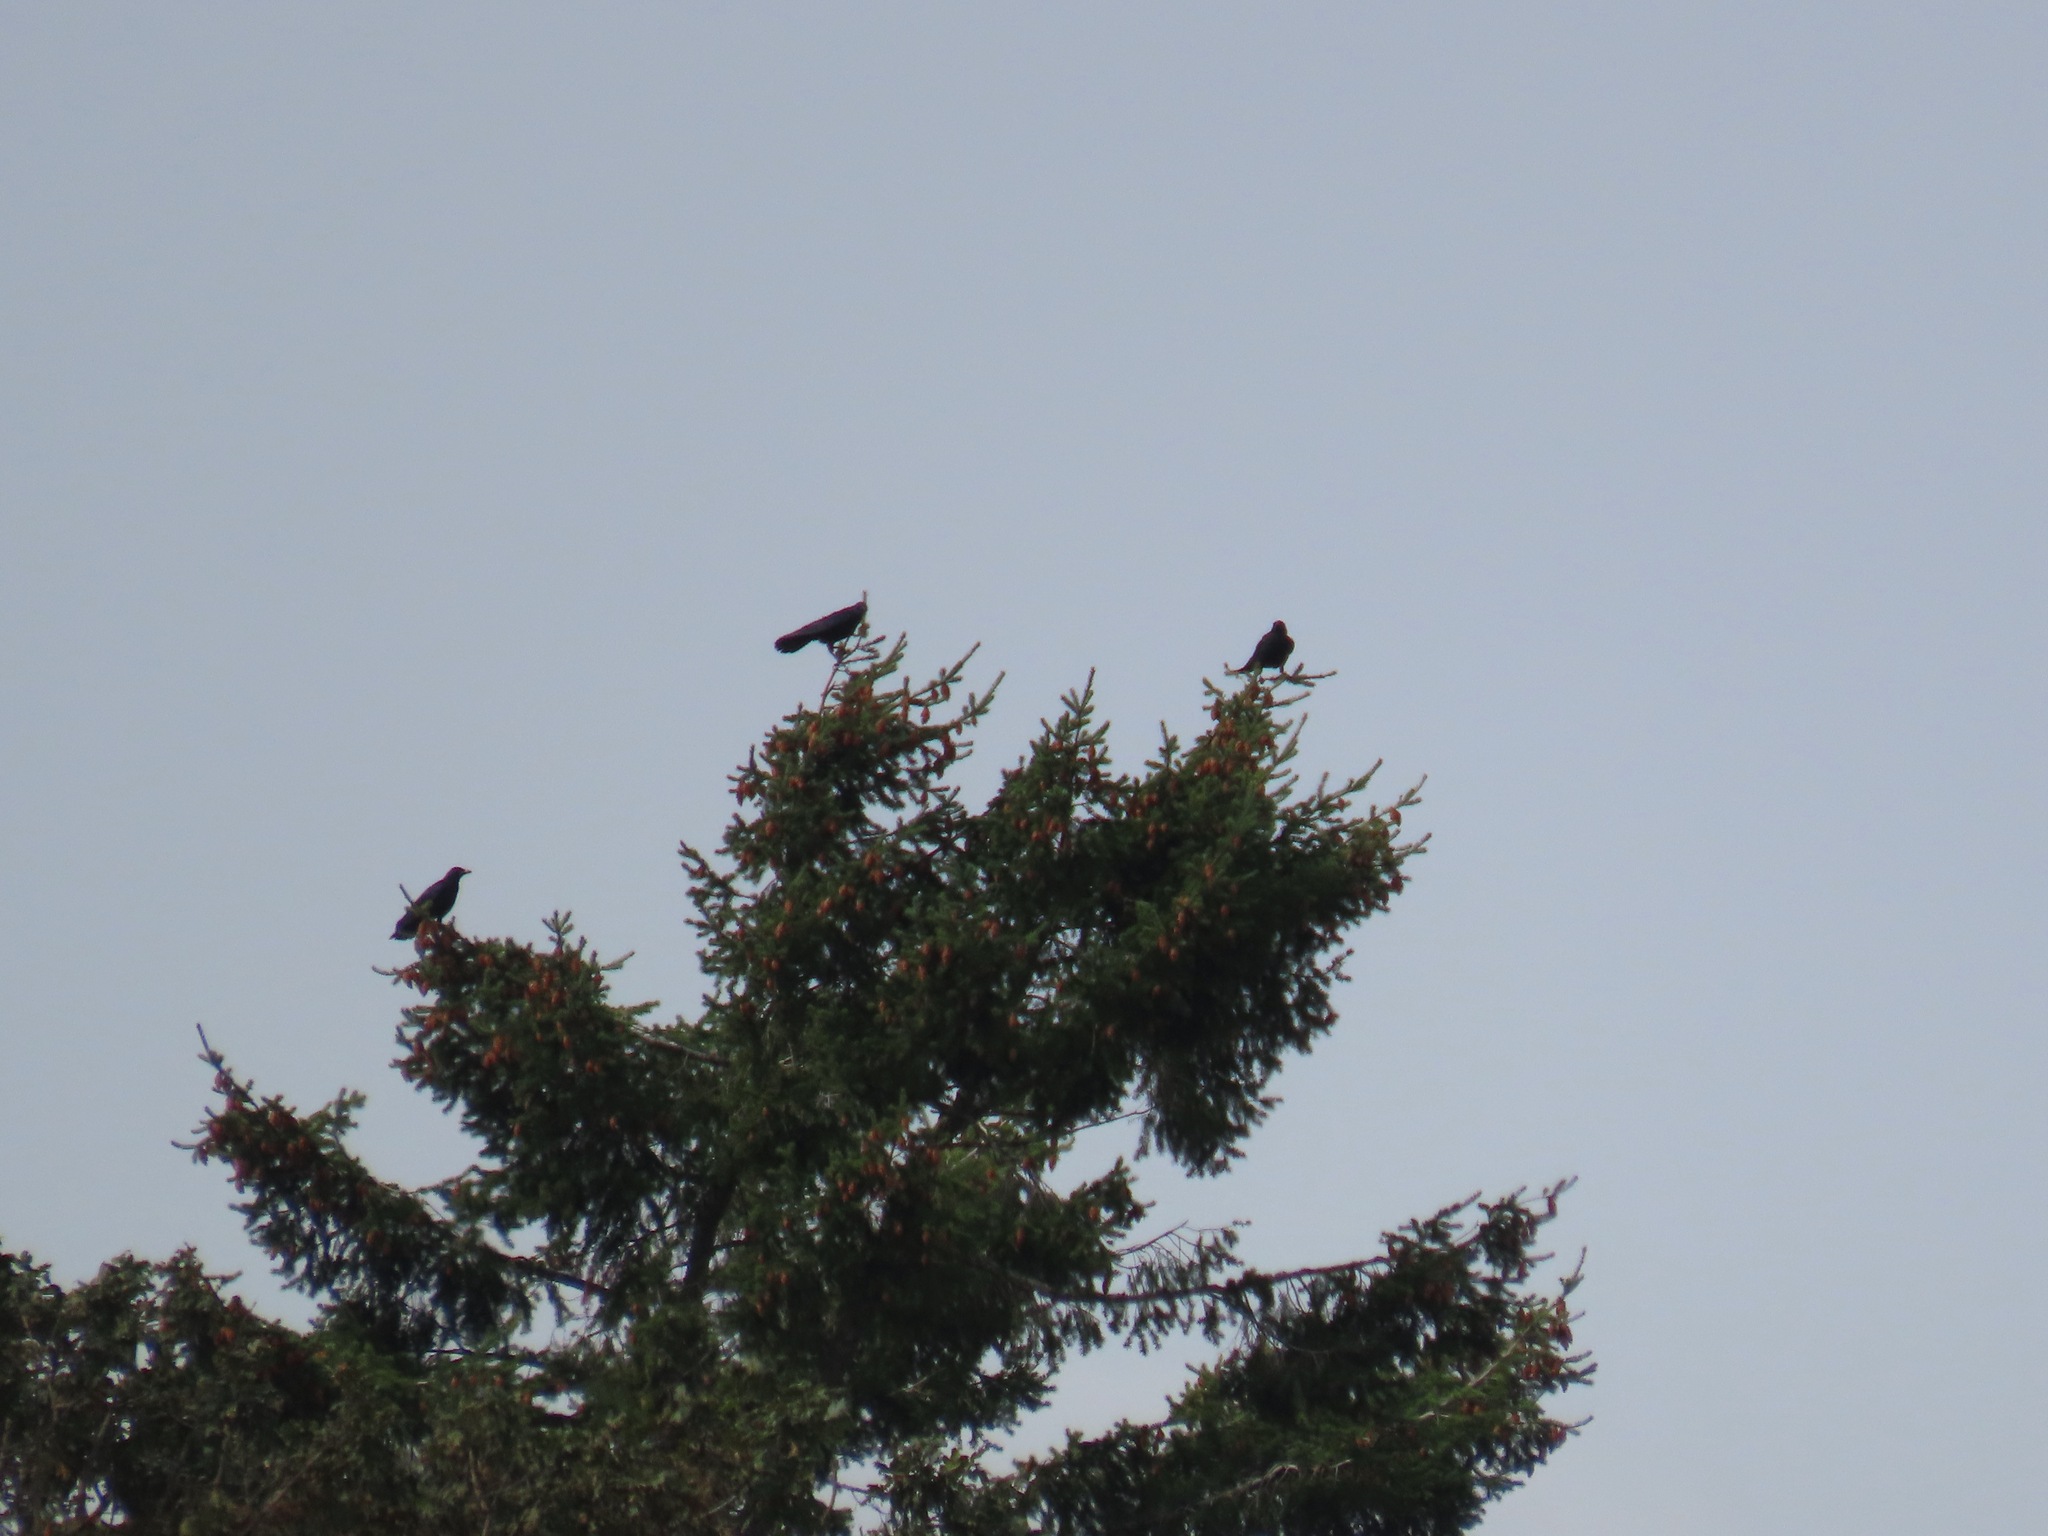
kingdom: Animalia
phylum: Chordata
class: Aves
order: Passeriformes
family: Corvidae
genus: Corvus
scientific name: Corvus brachyrhynchos
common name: American crow
